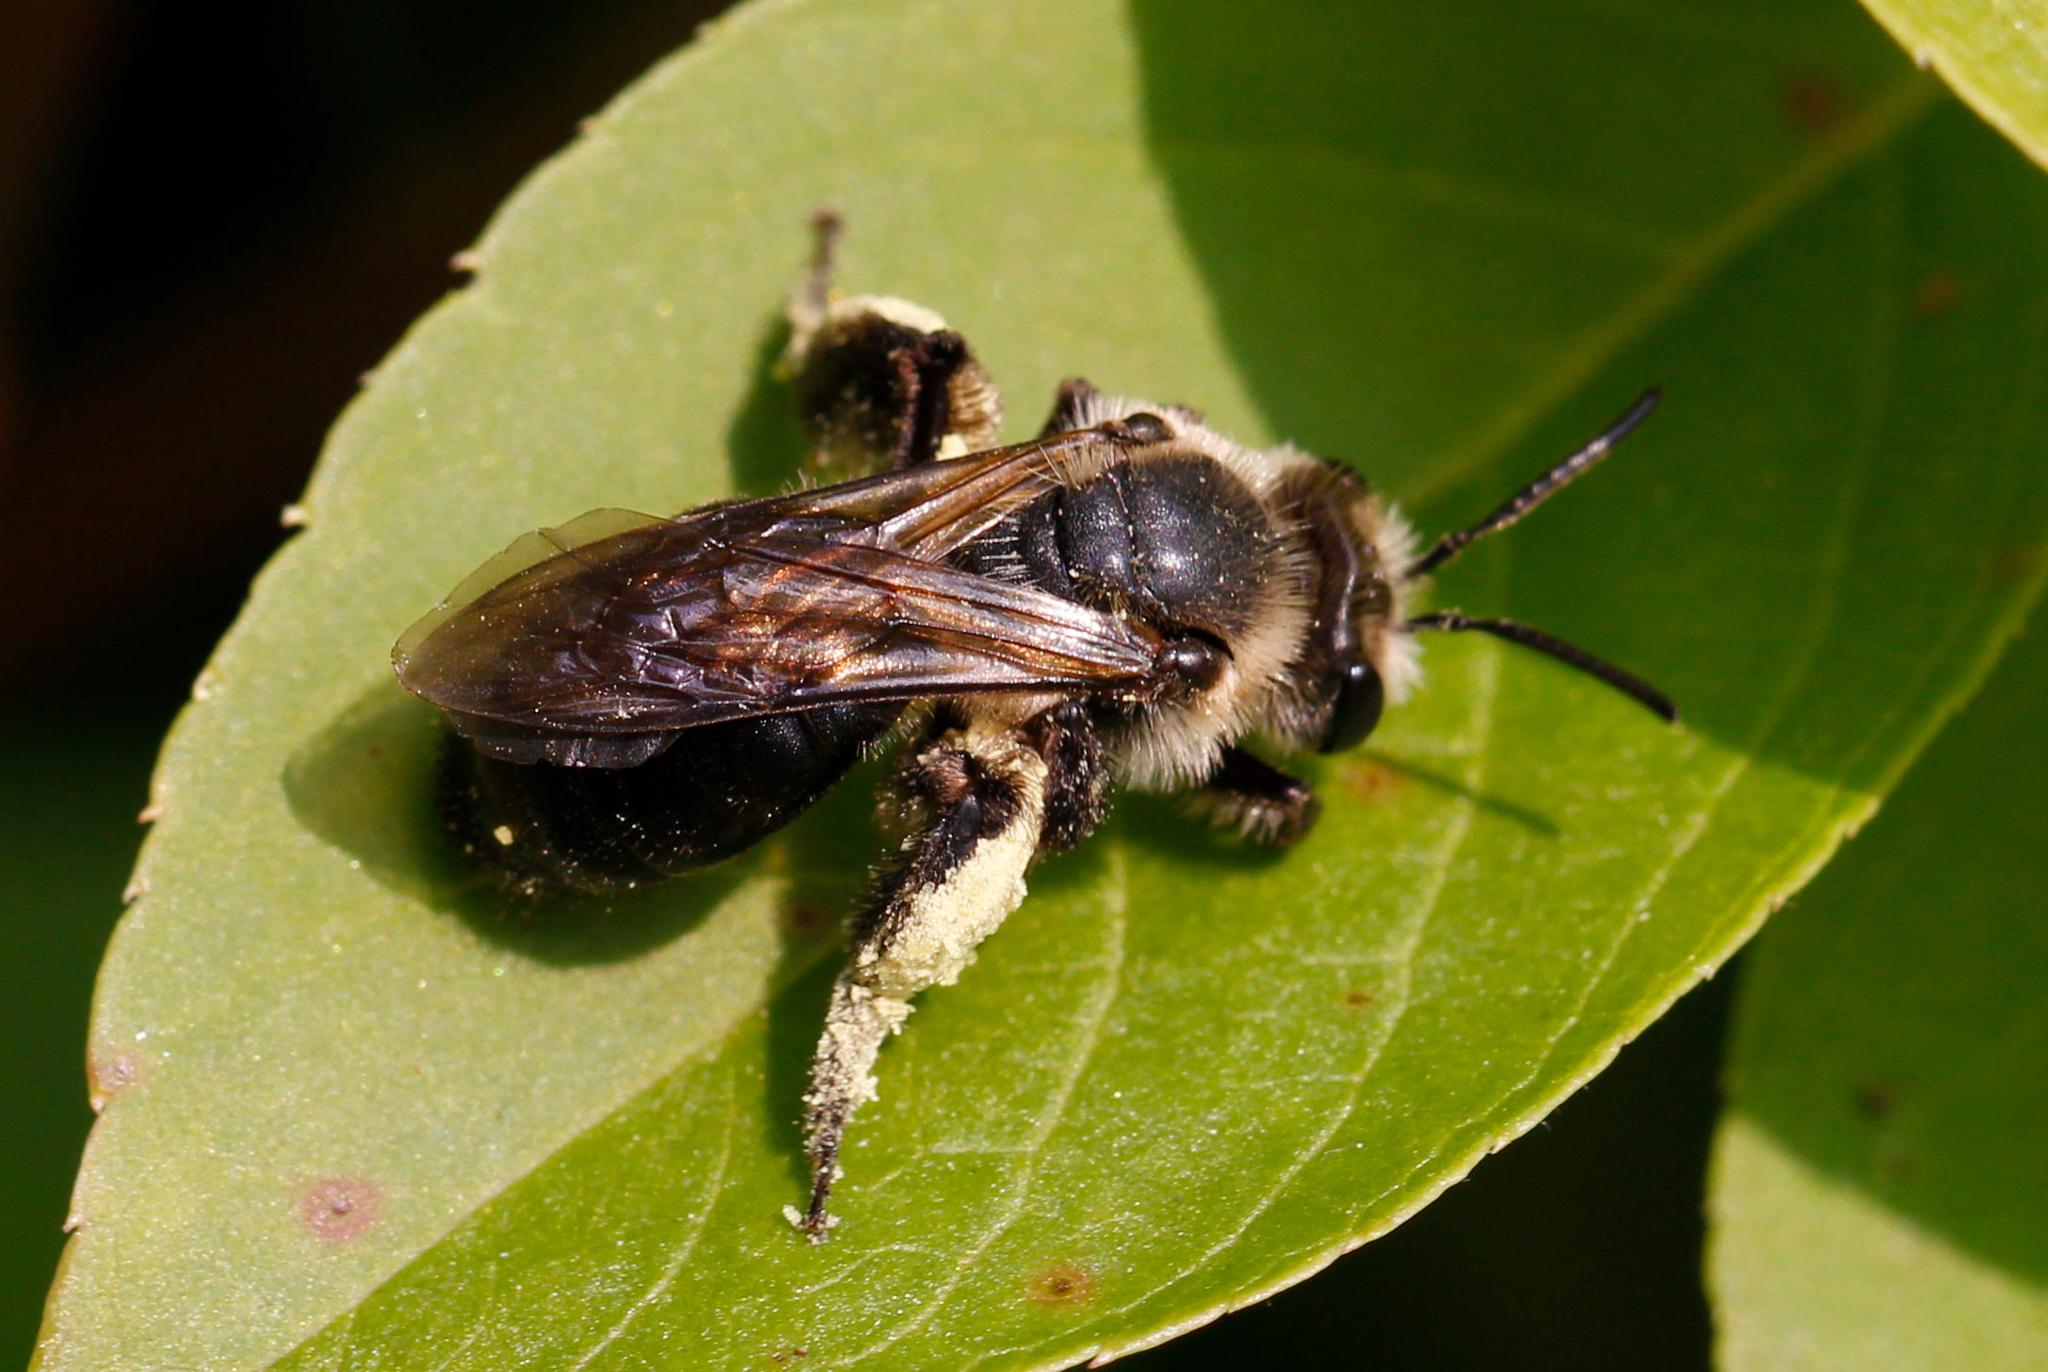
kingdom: Animalia
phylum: Arthropoda
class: Insecta
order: Hymenoptera
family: Andrenidae
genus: Andrena
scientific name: Andrena vicina
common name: Neighborly mining bee
